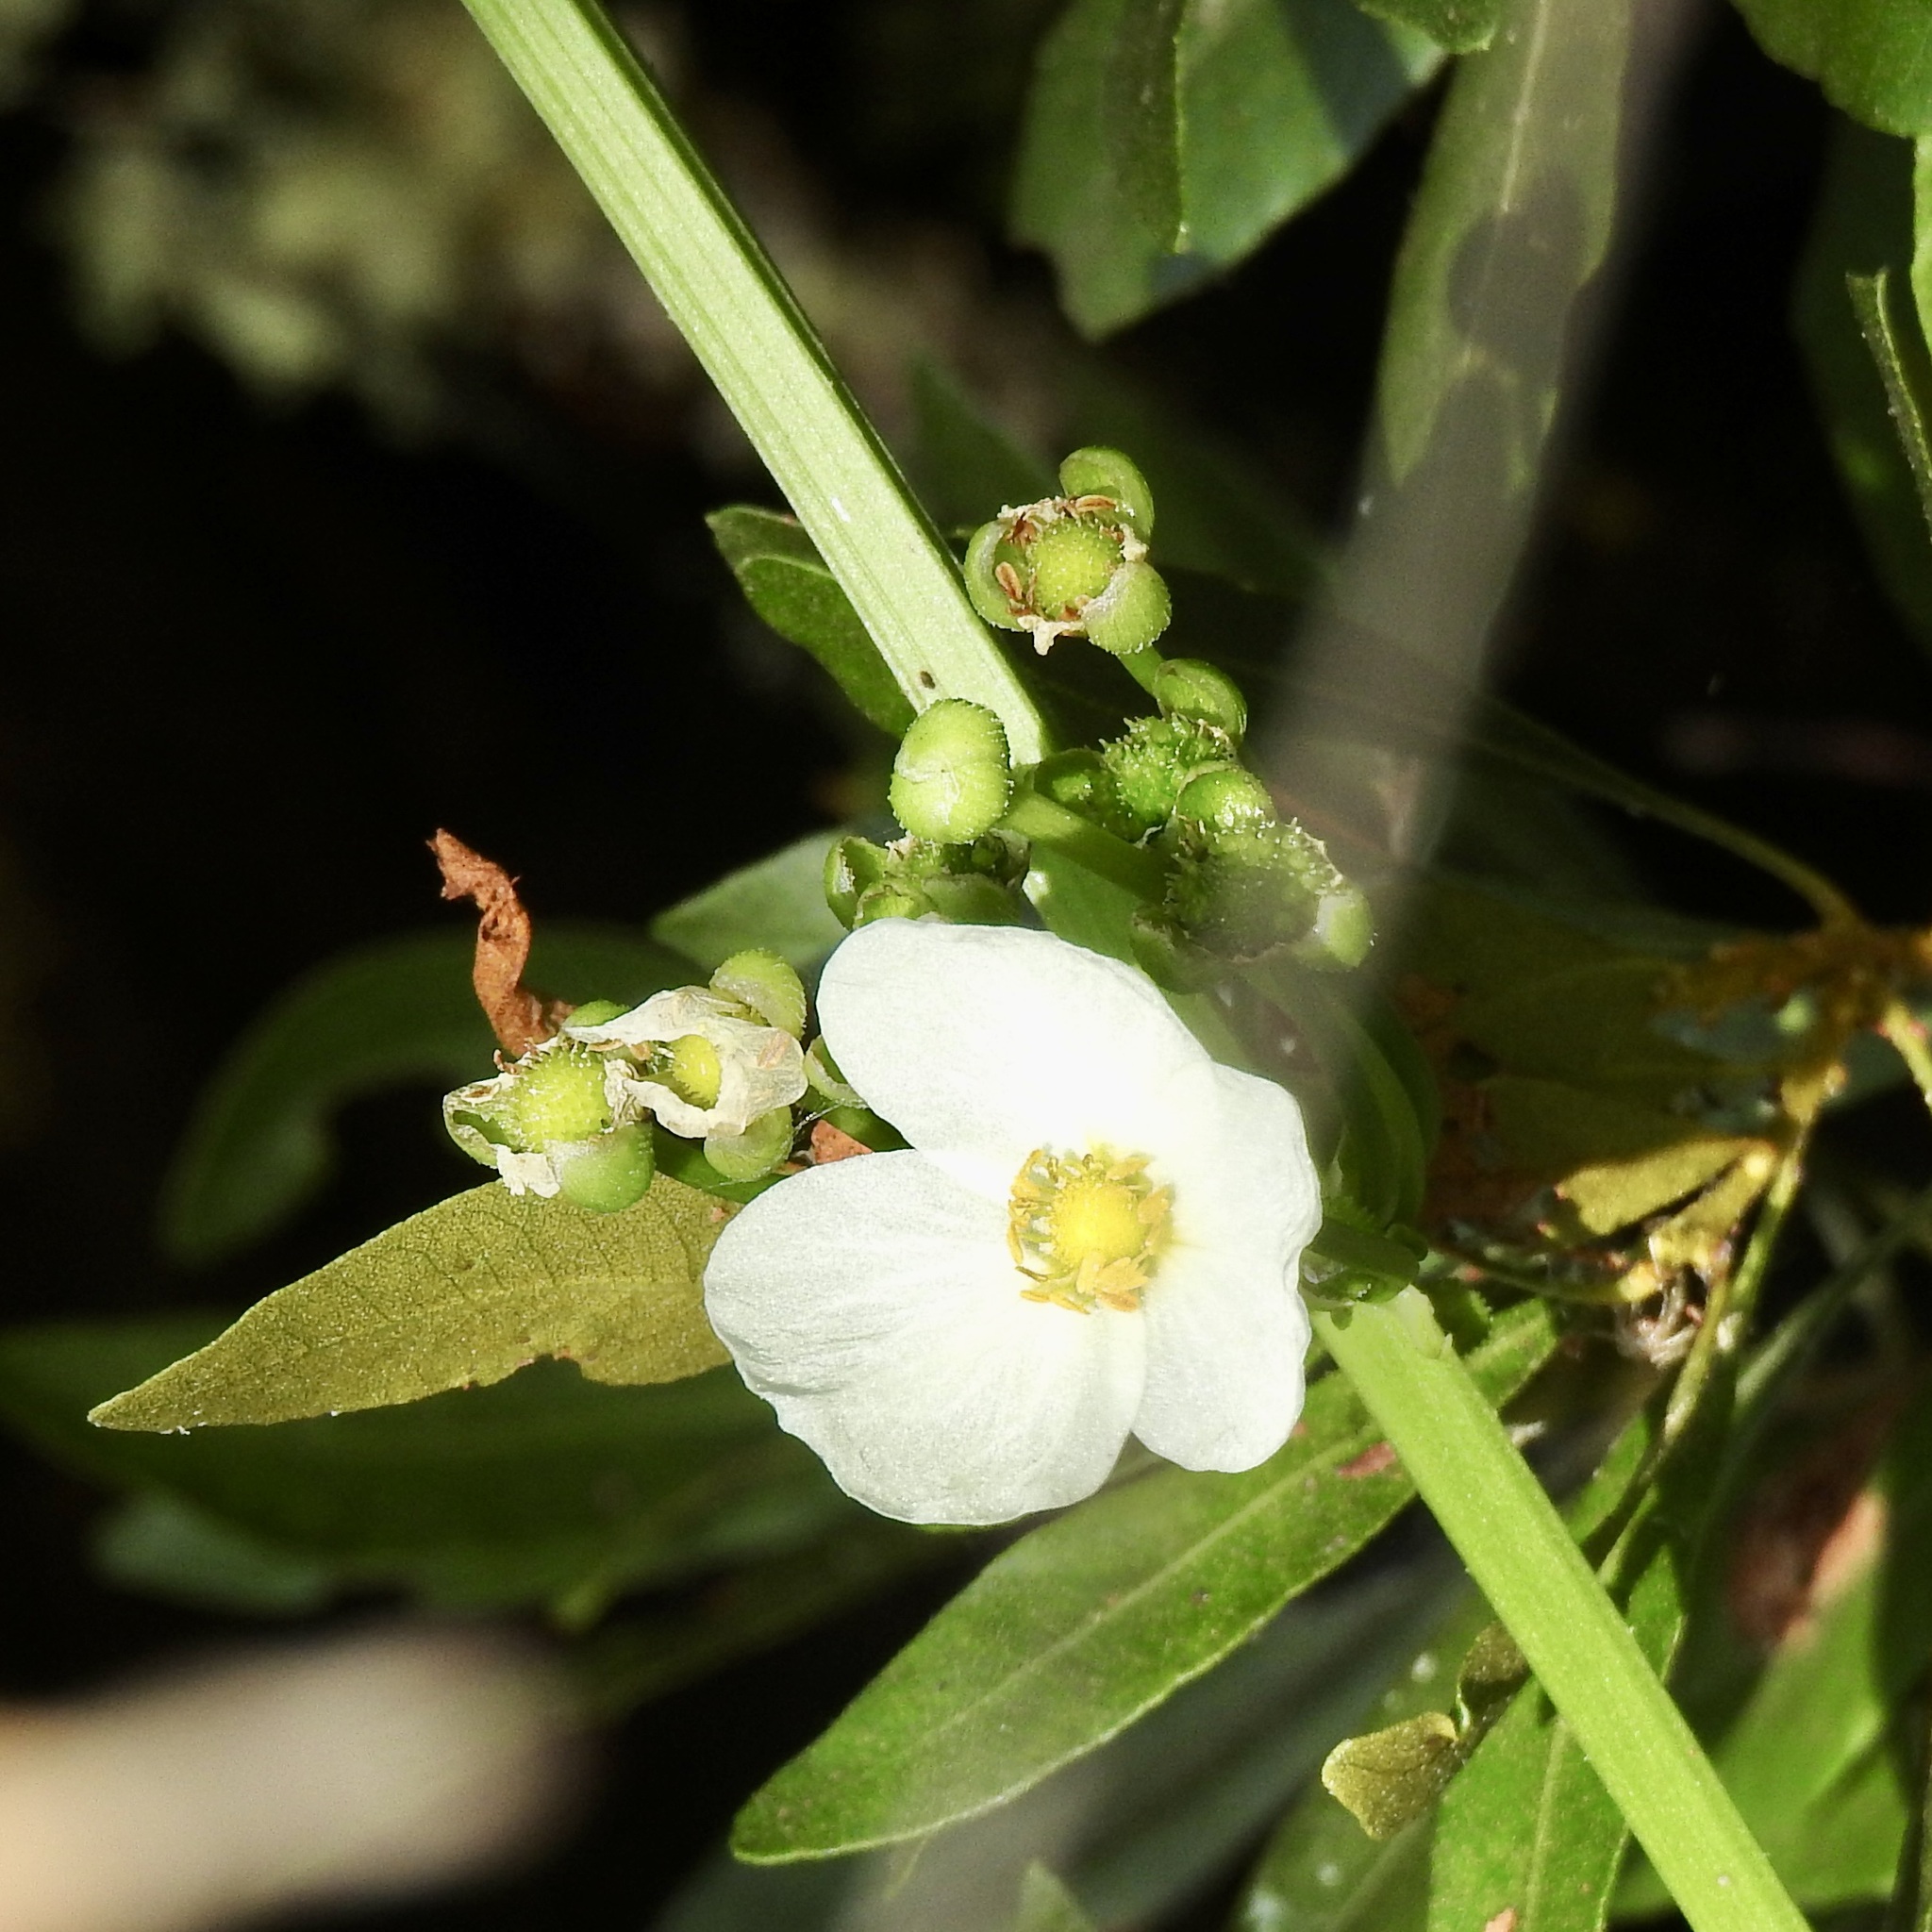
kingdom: Plantae
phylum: Tracheophyta
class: Liliopsida
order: Alismatales
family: Alismataceae
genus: Aquarius
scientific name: Aquarius cordifolius
